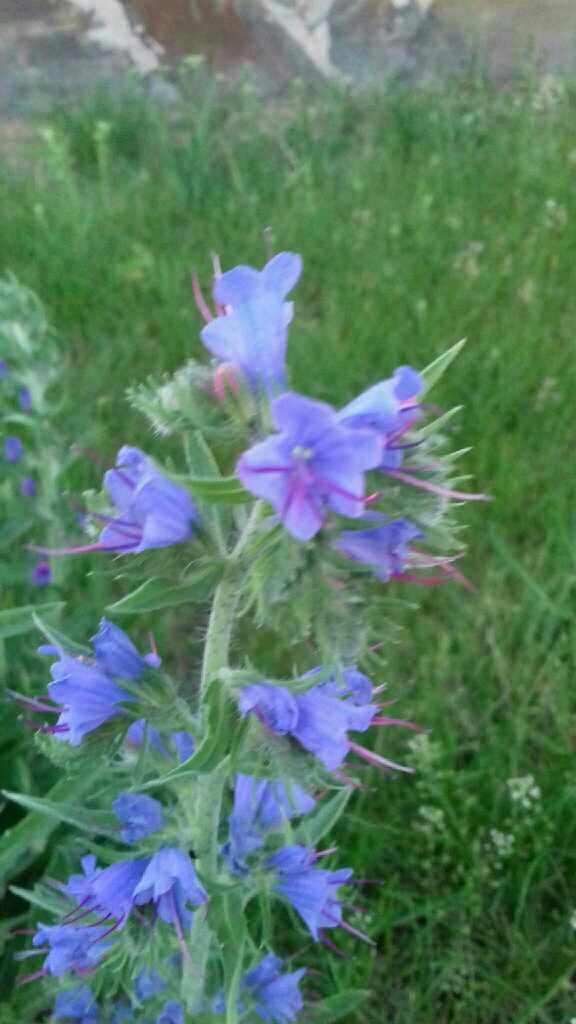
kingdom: Plantae
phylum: Tracheophyta
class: Magnoliopsida
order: Boraginales
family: Boraginaceae
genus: Echium
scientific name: Echium vulgare
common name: Common viper's bugloss
